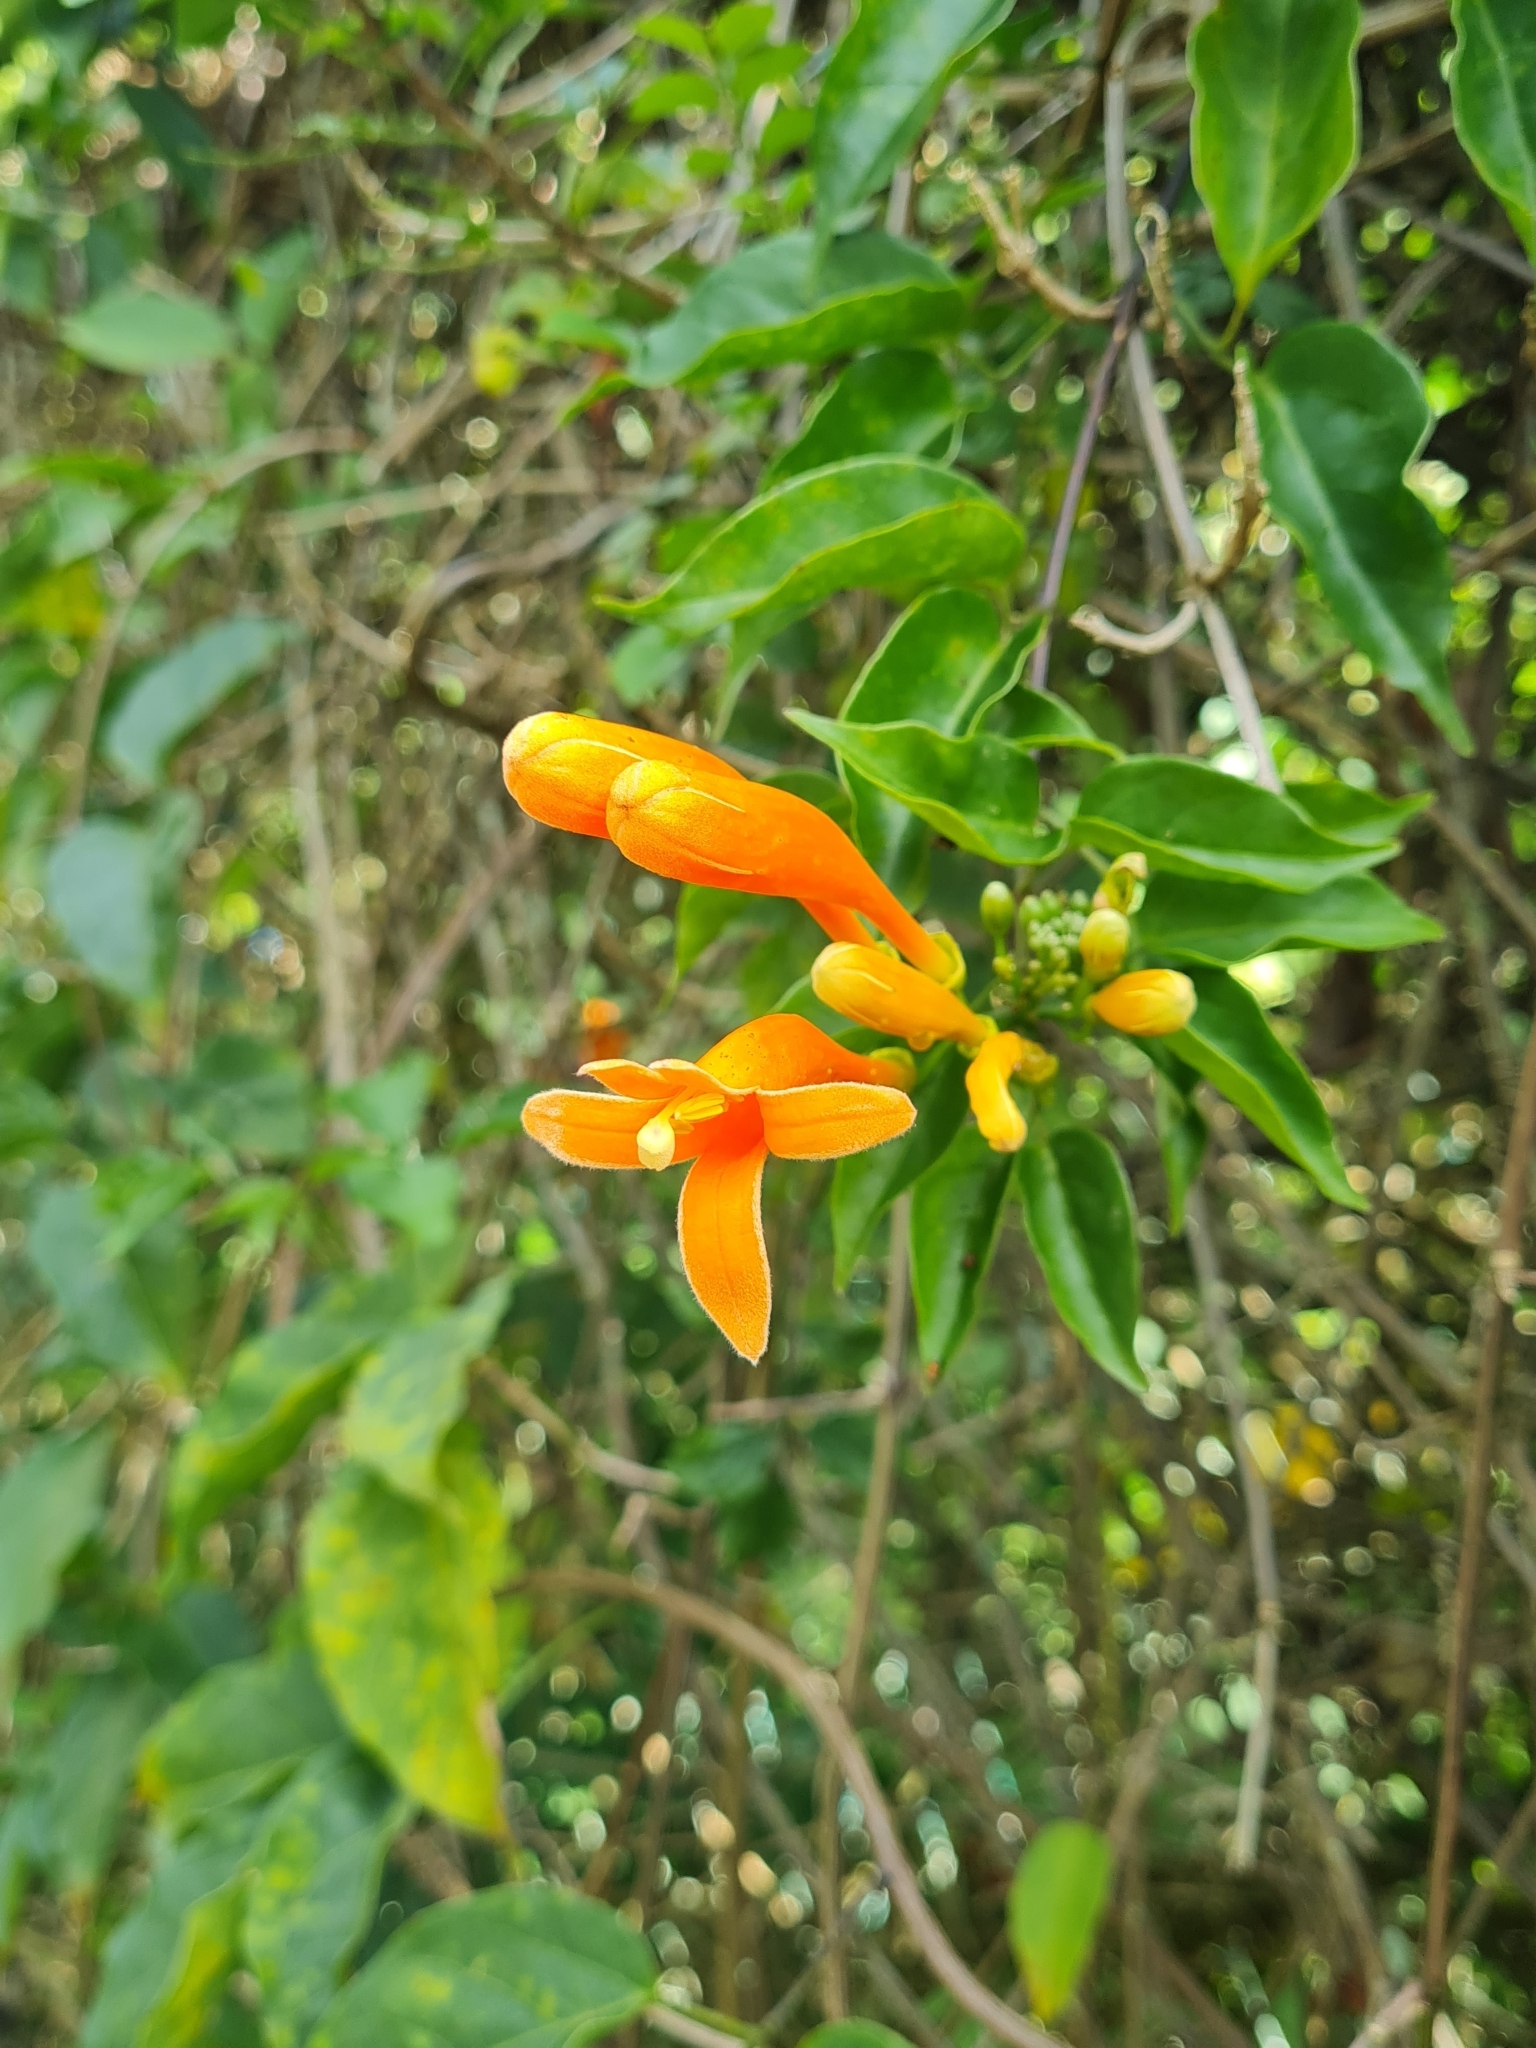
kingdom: Plantae
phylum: Tracheophyta
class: Magnoliopsida
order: Lamiales
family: Bignoniaceae
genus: Pyrostegia
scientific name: Pyrostegia venusta
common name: Flamevine
